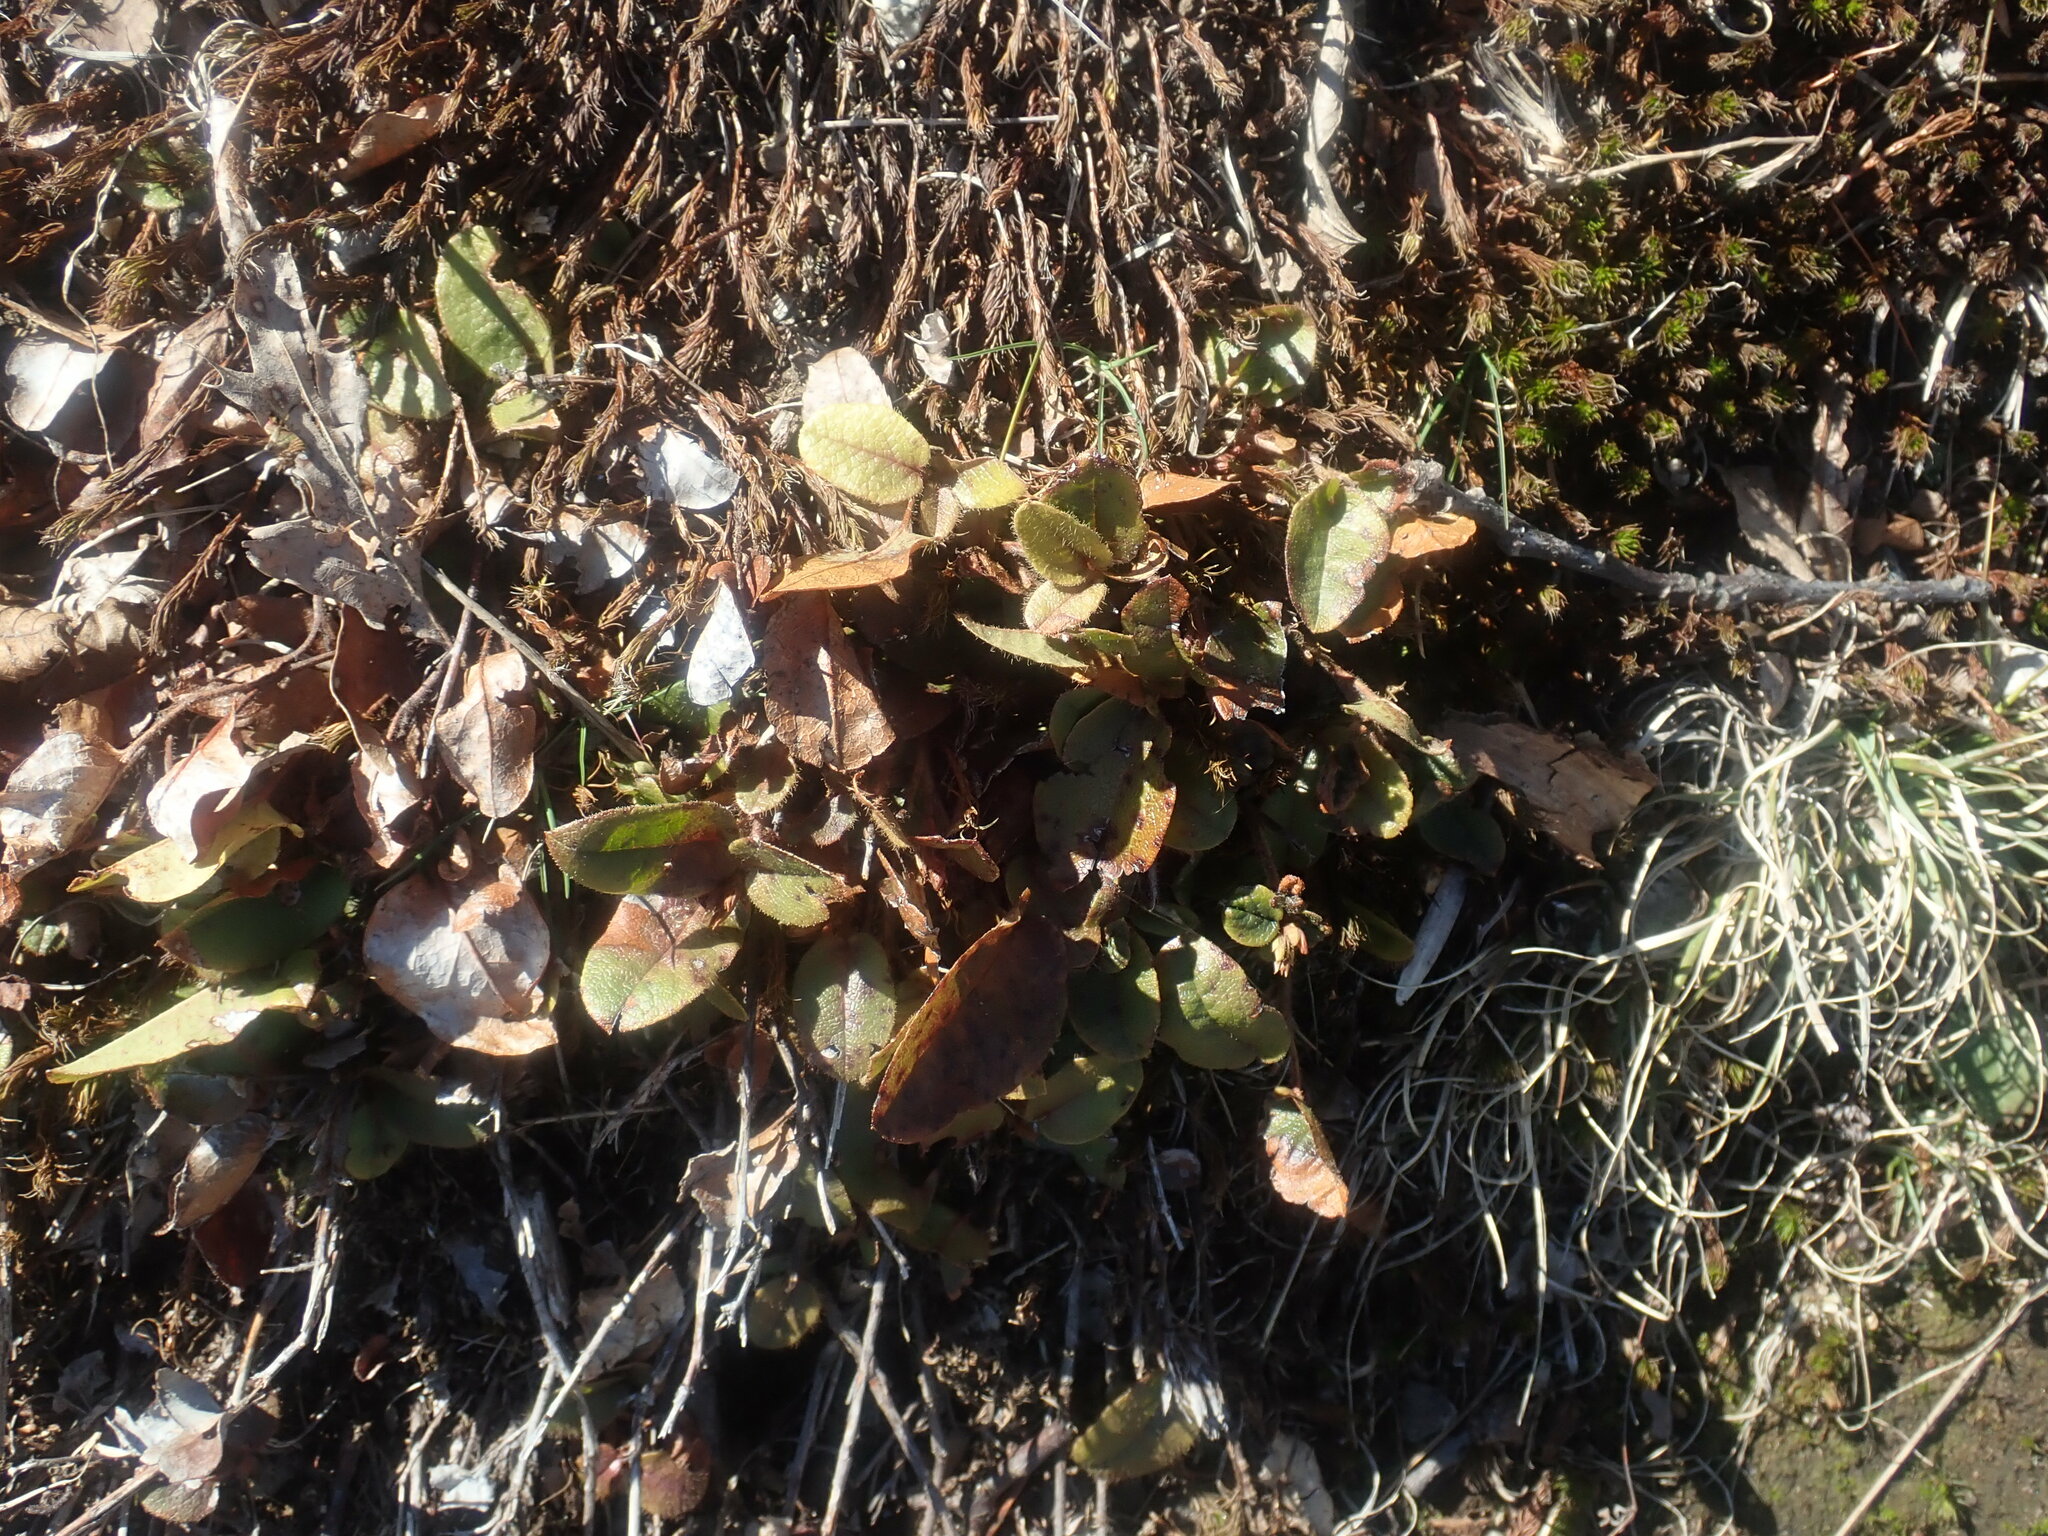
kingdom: Plantae
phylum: Tracheophyta
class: Magnoliopsida
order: Ericales
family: Ericaceae
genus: Epigaea
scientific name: Epigaea repens
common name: Gravelroot
